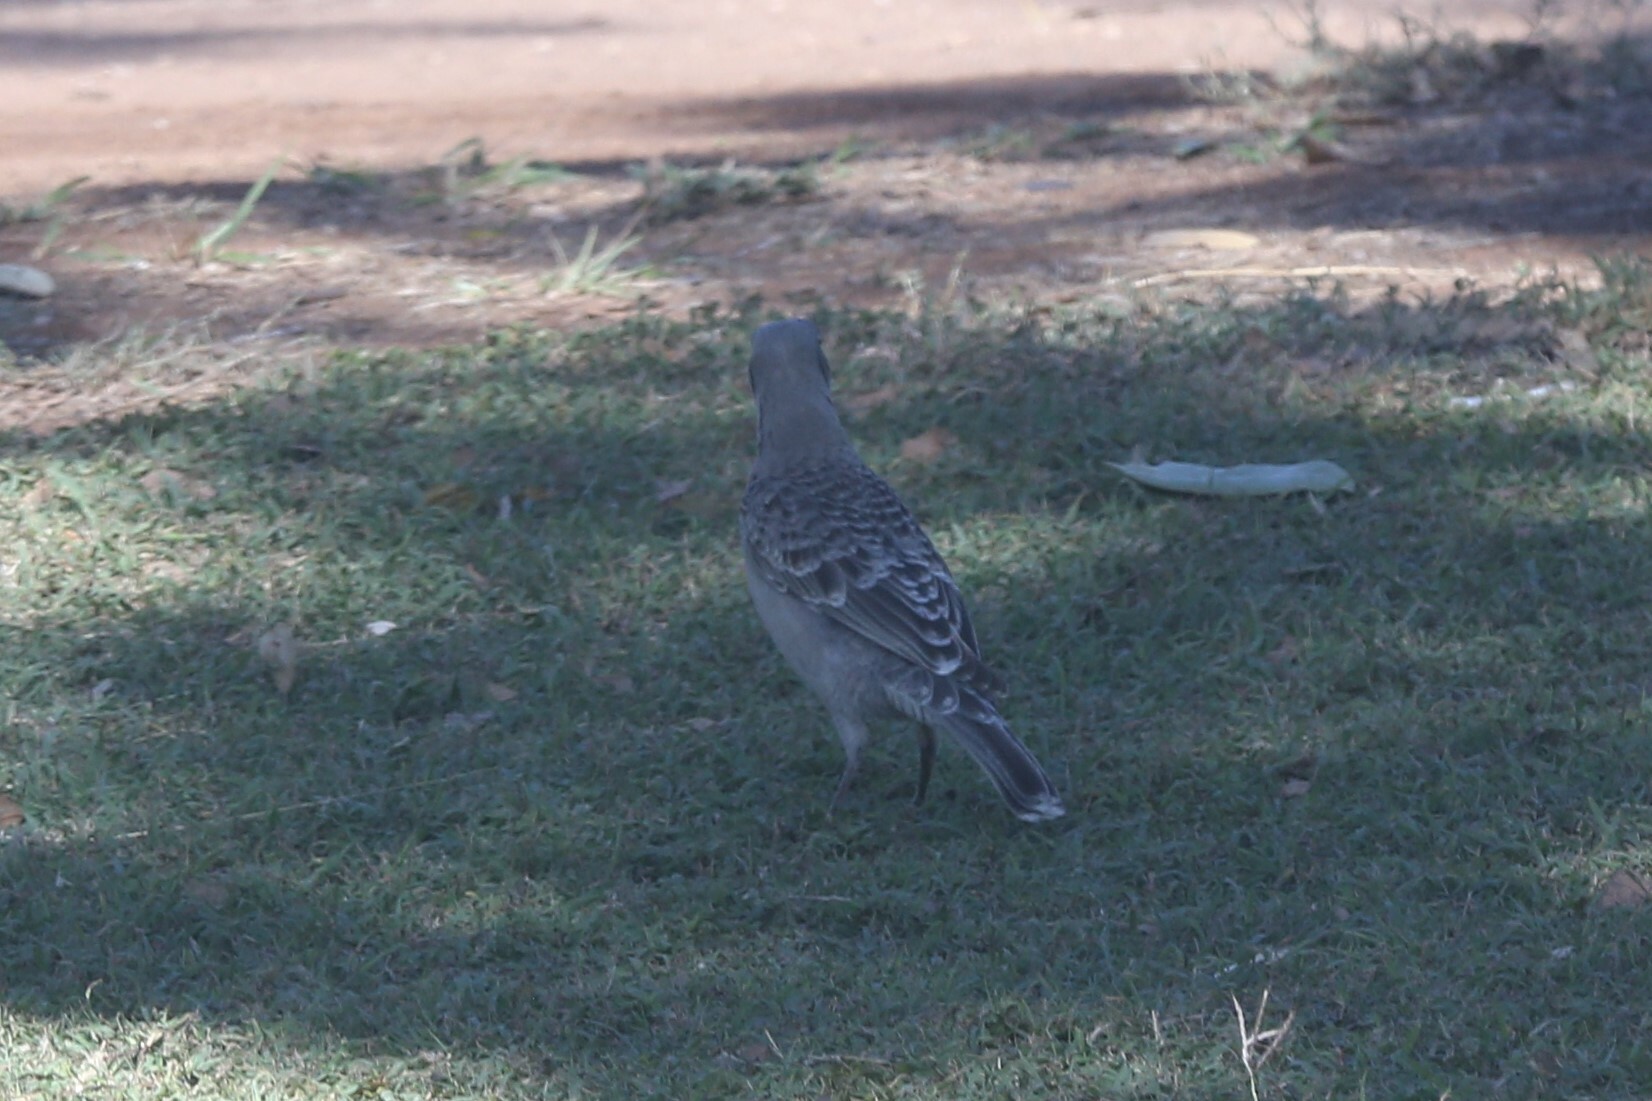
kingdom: Animalia
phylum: Chordata
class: Aves
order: Passeriformes
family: Ptilonorhynchidae
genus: Chlamydera
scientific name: Chlamydera nuchalis
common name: Great bowerbird
